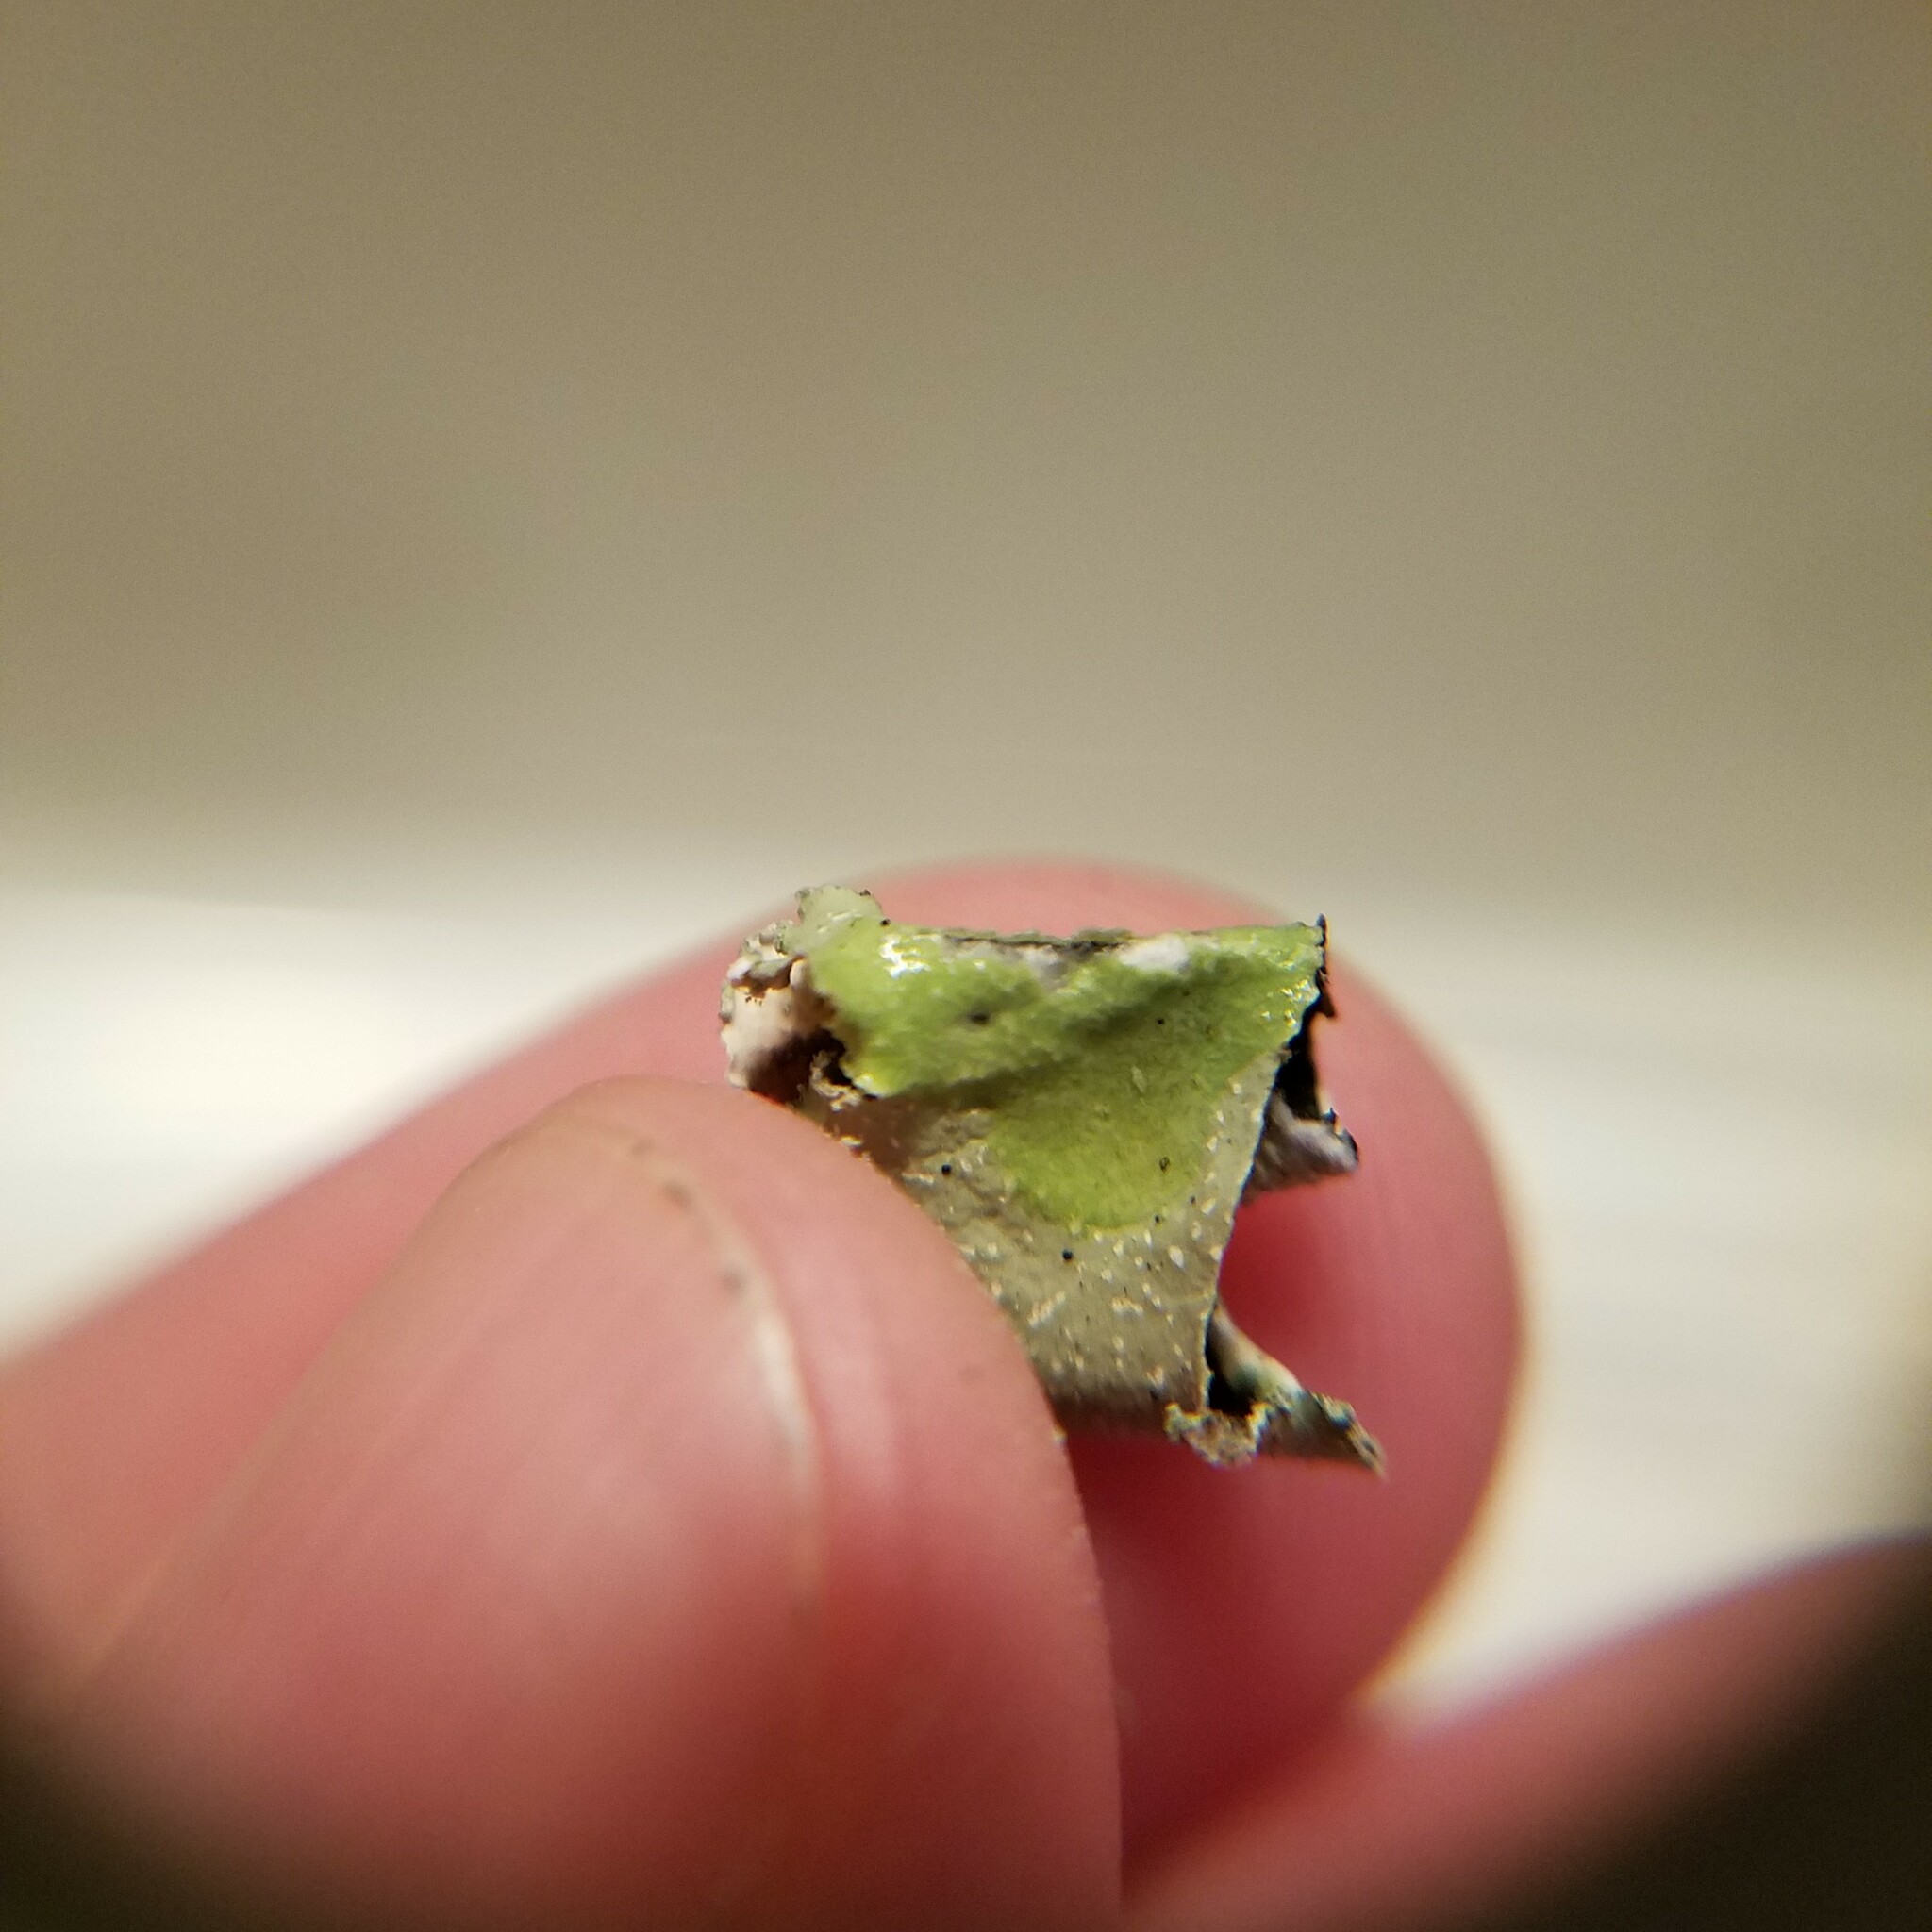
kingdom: Fungi
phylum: Ascomycota
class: Lecanoromycetes
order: Lecanorales
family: Parmeliaceae
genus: Cetrelia
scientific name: Cetrelia chicitae
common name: Chicita's sea storm lichen
